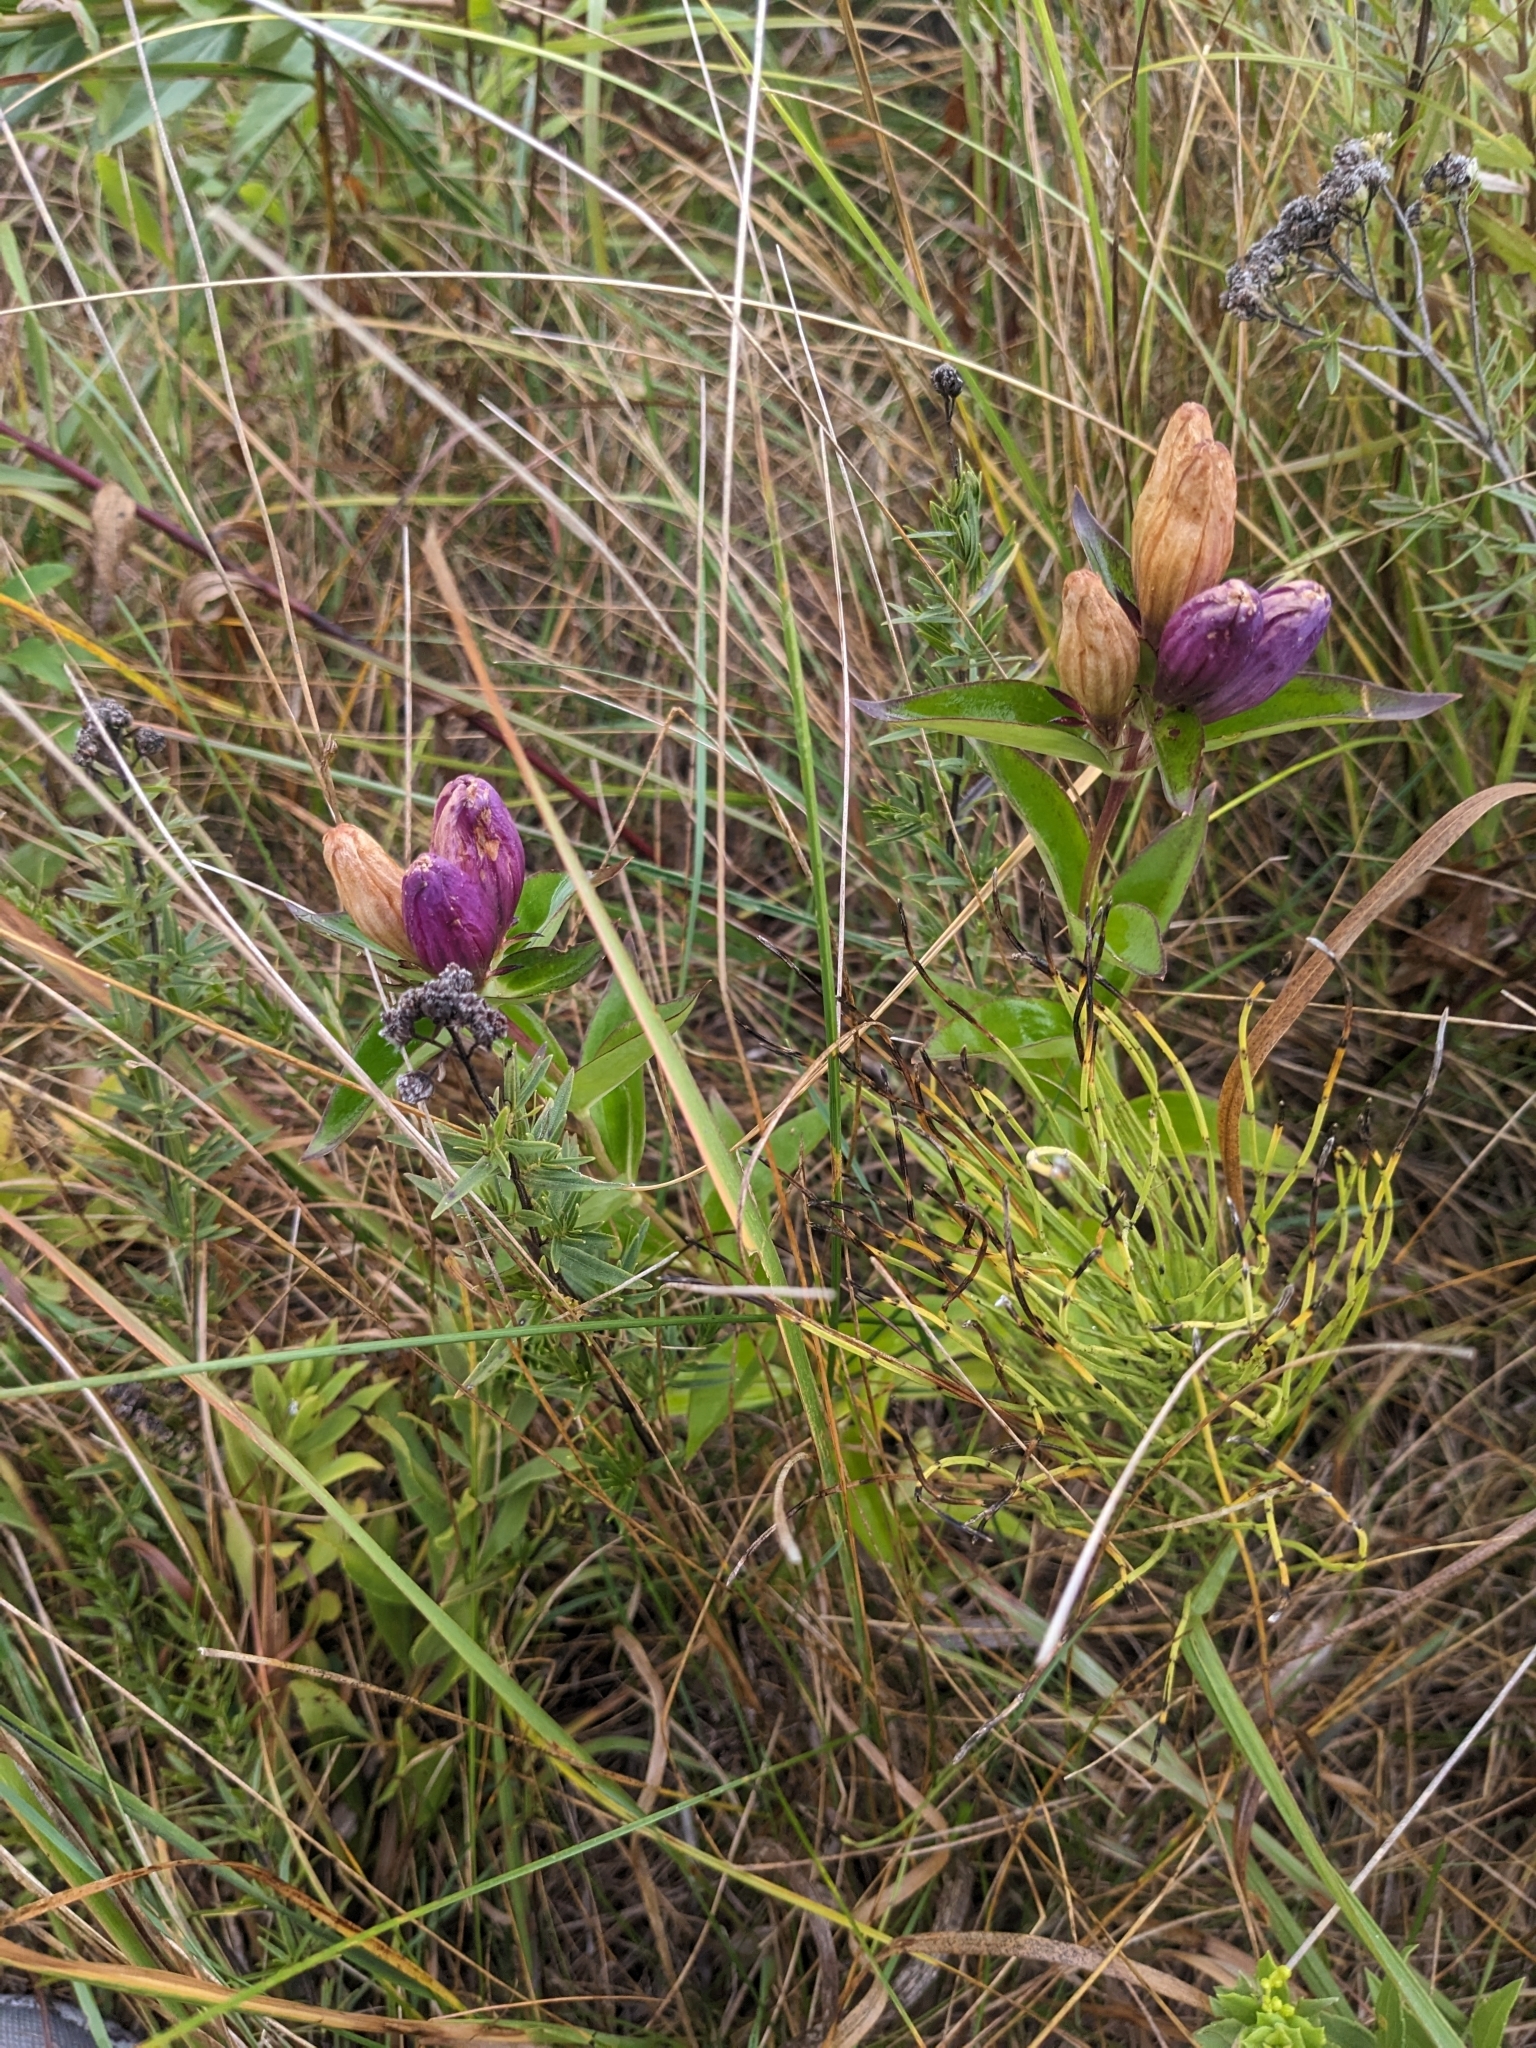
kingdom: Plantae
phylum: Tracheophyta
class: Magnoliopsida
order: Gentianales
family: Gentianaceae
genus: Gentiana
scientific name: Gentiana andrewsii
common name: Bottle gentian
